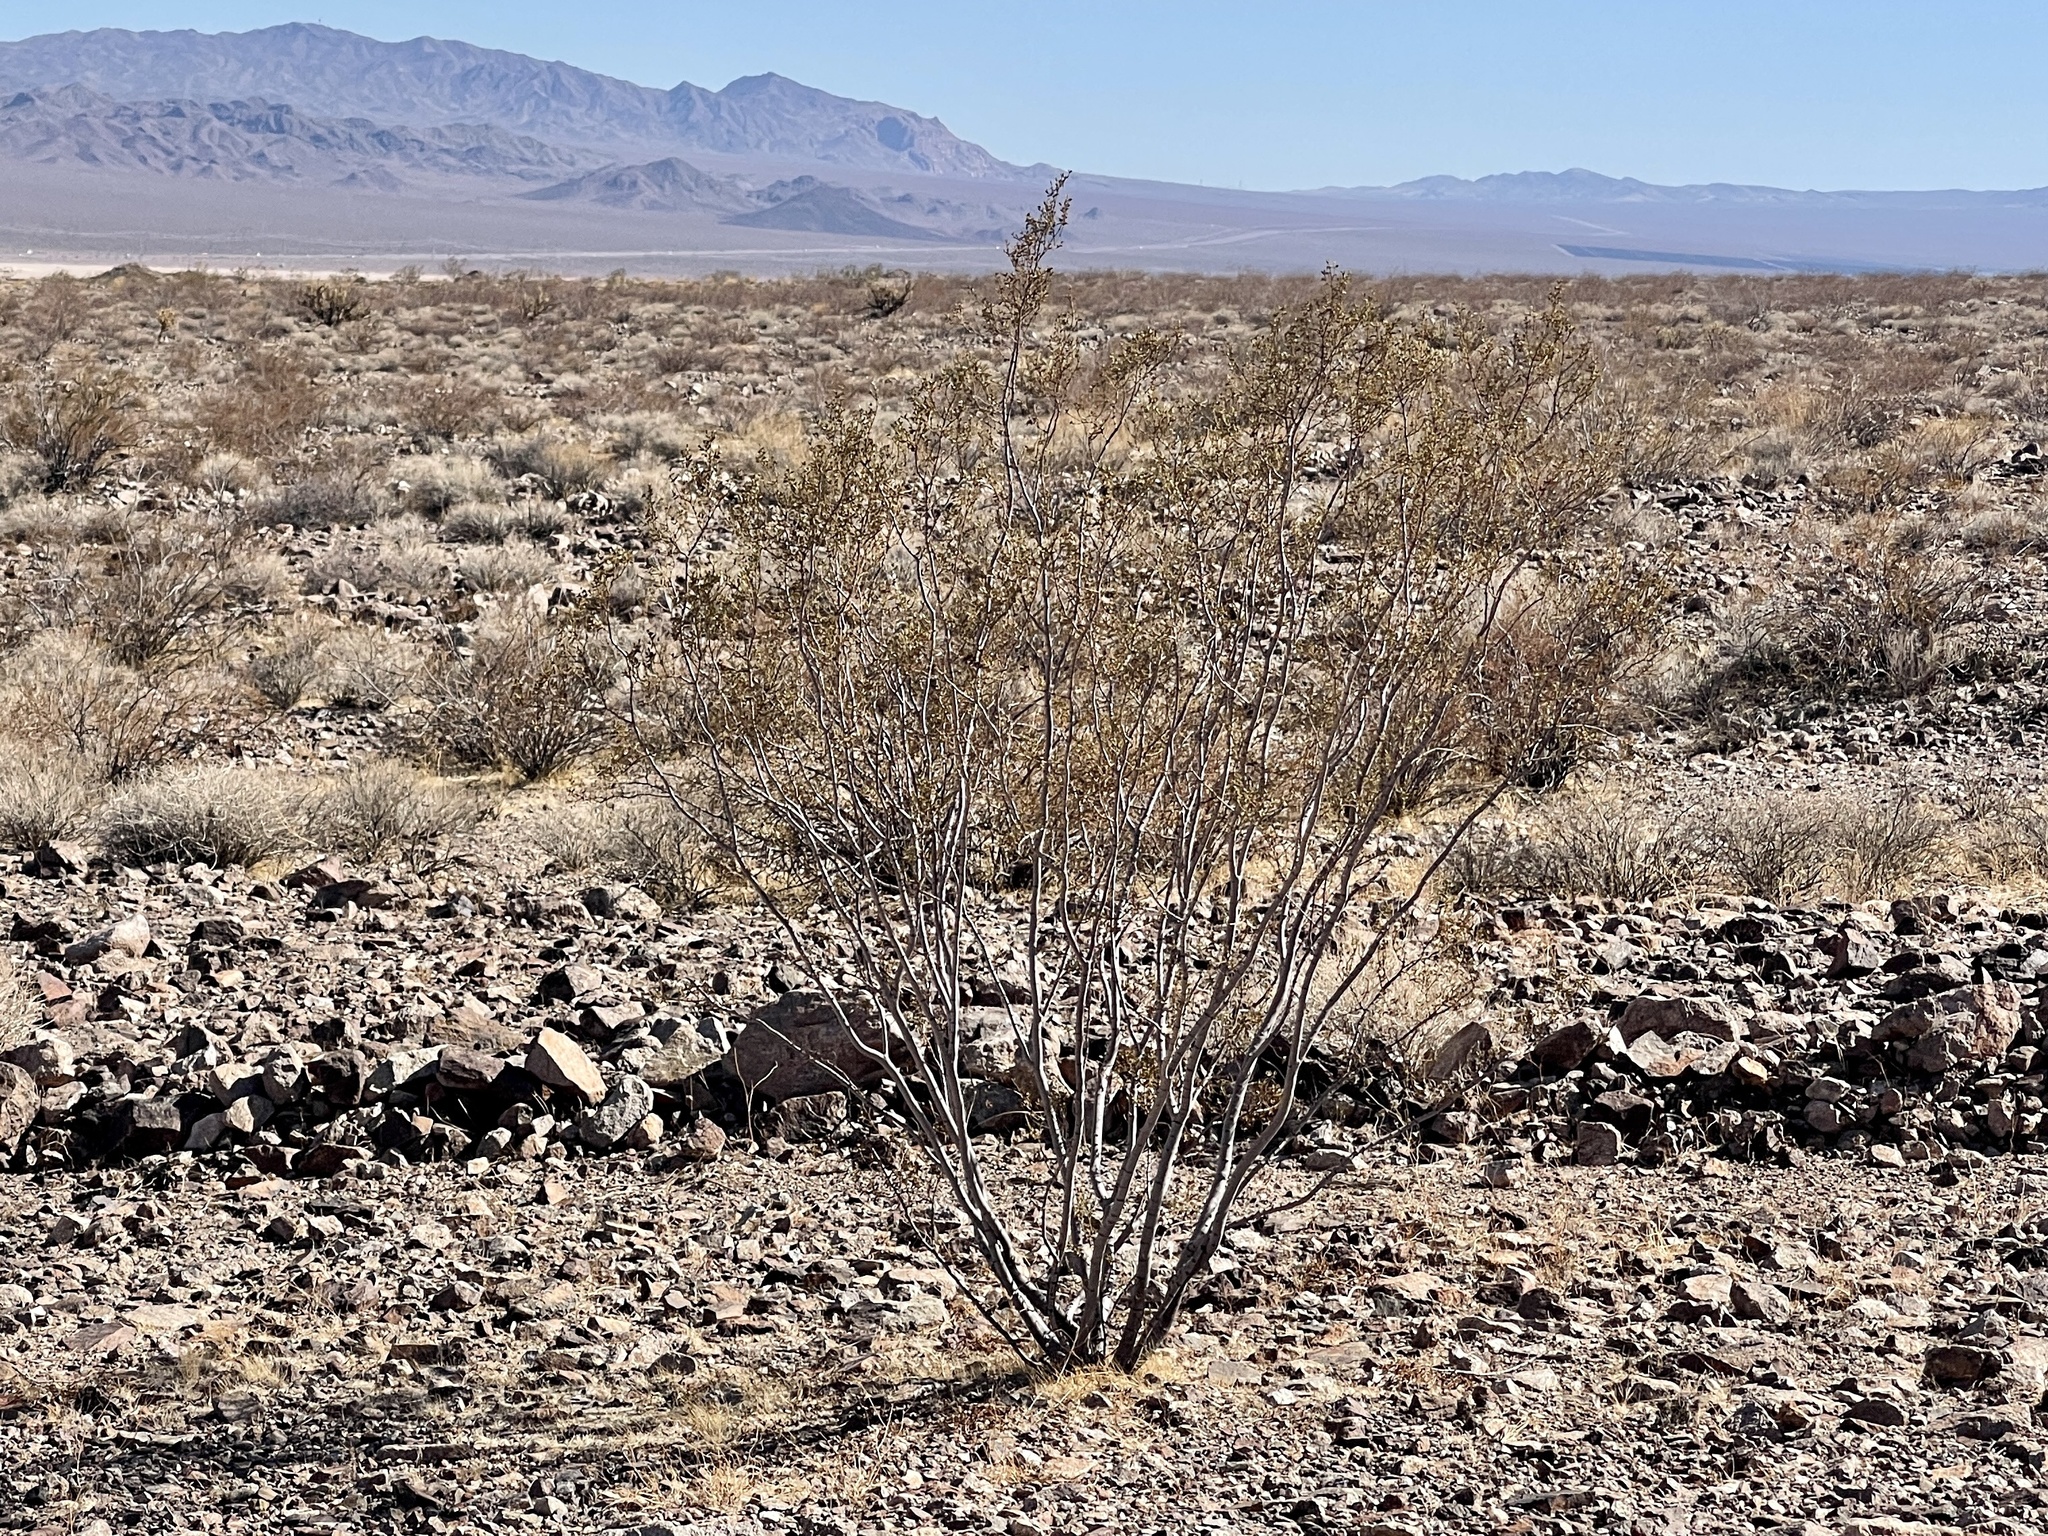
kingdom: Plantae
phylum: Tracheophyta
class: Magnoliopsida
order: Zygophyllales
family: Zygophyllaceae
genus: Larrea
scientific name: Larrea tridentata
